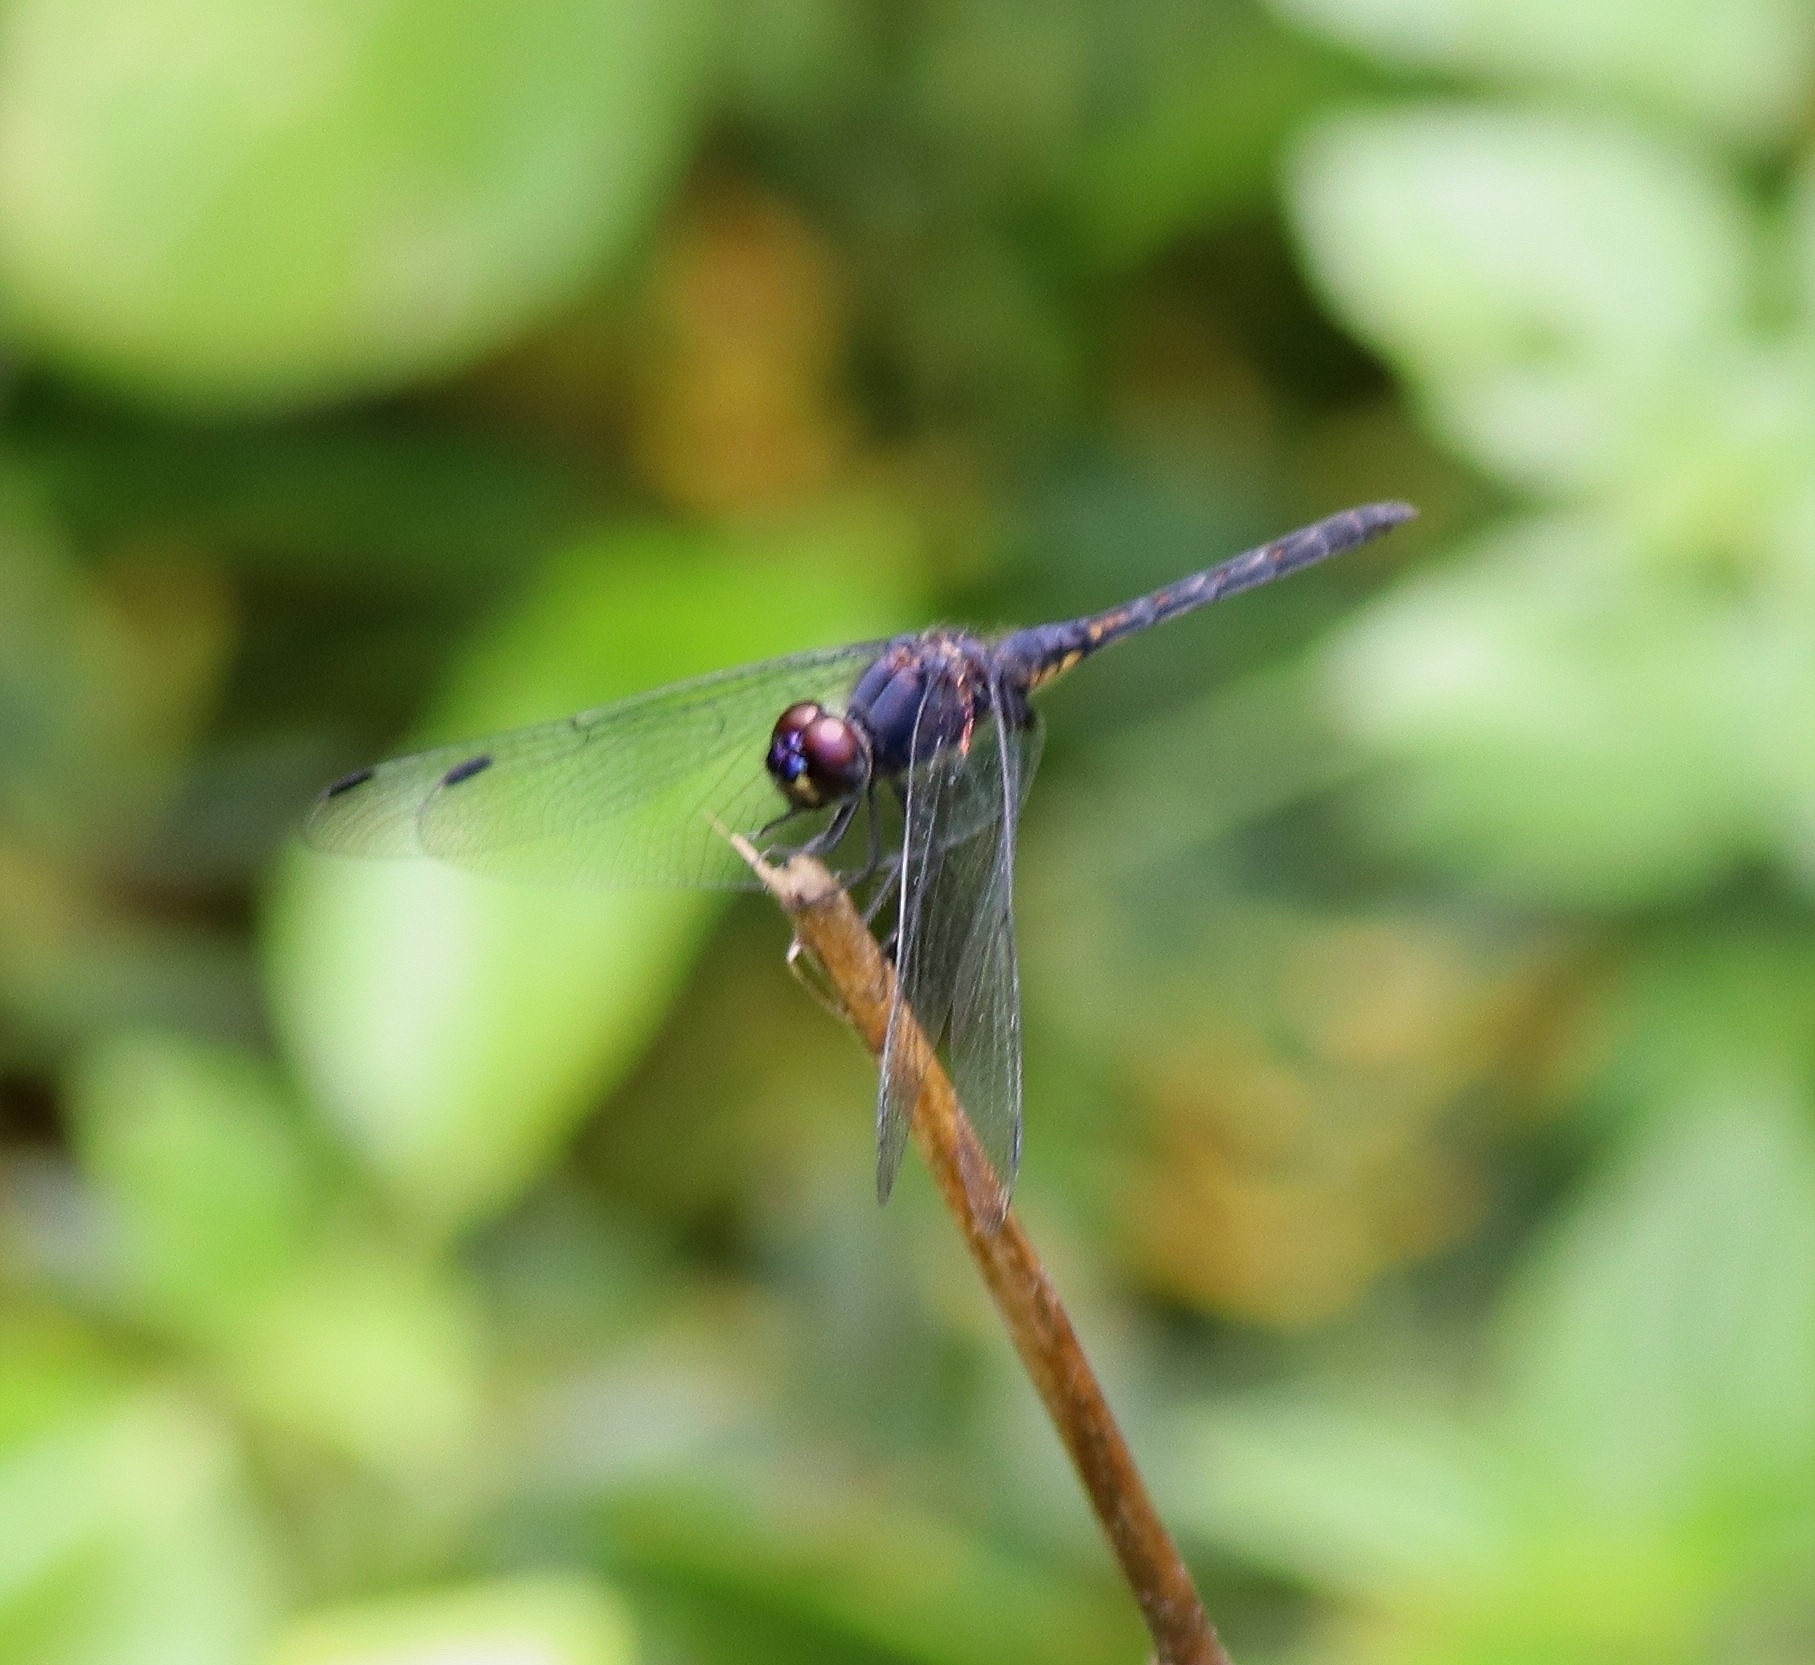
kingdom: Animalia
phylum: Arthropoda
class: Insecta
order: Odonata
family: Libellulidae
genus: Trithemis
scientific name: Trithemis festiva
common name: Indigo dropwing
